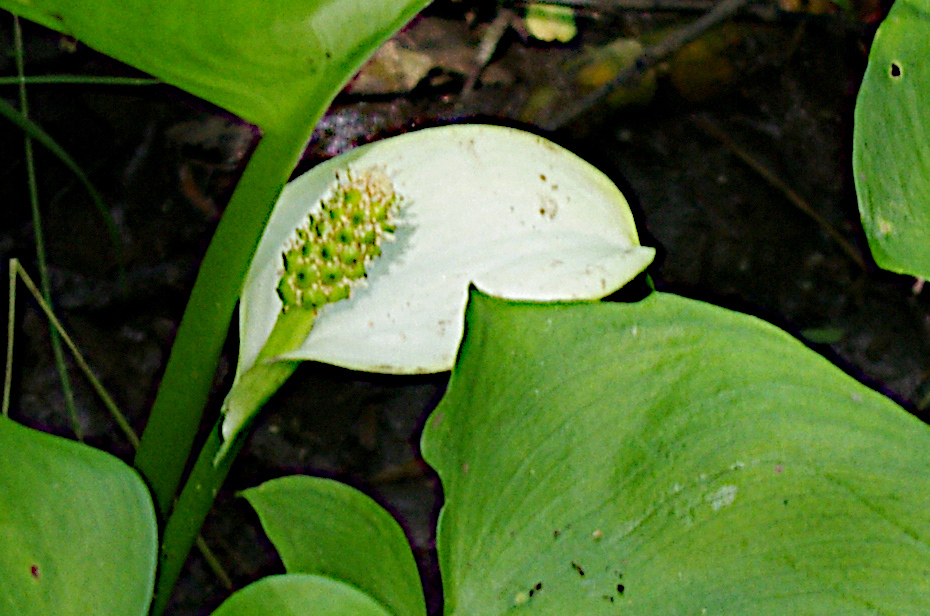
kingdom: Plantae
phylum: Tracheophyta
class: Liliopsida
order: Alismatales
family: Araceae
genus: Calla
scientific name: Calla palustris
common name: Bog arum
